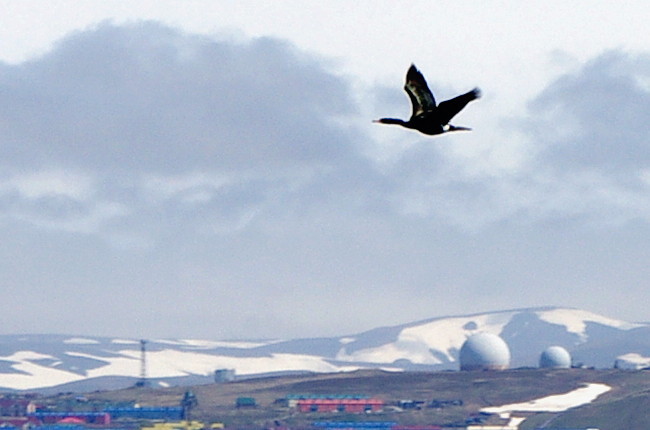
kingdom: Animalia
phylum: Chordata
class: Aves
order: Suliformes
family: Phalacrocoracidae
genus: Phalacrocorax
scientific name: Phalacrocorax pelagicus
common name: Pelagic cormorant
